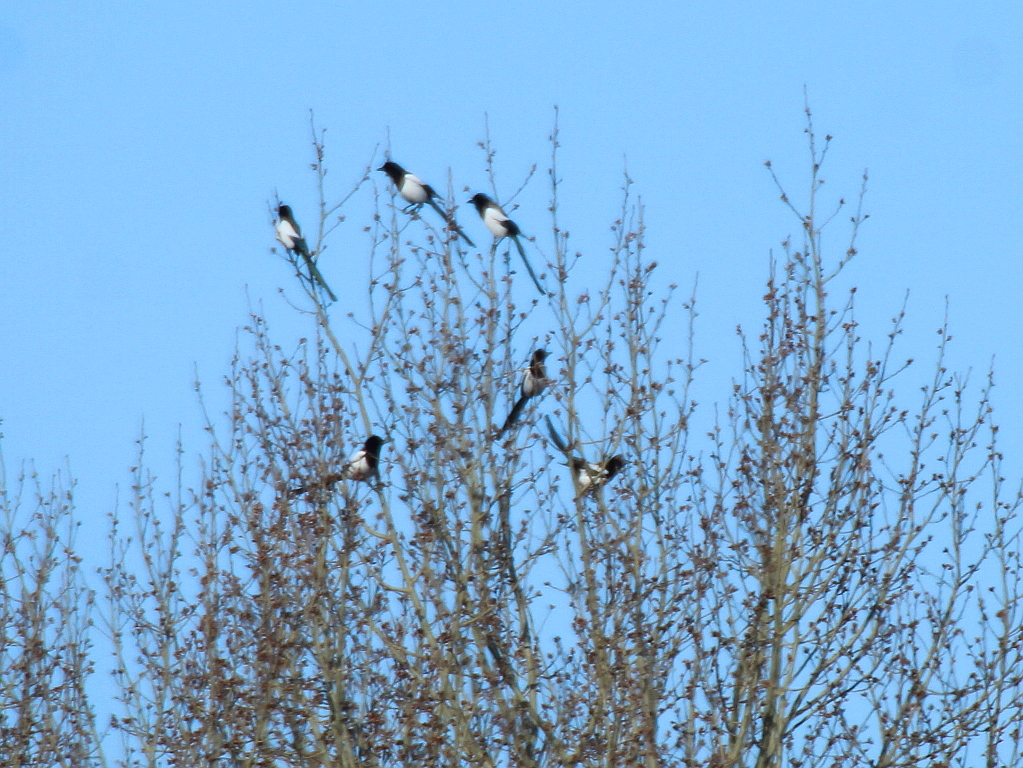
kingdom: Animalia
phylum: Chordata
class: Aves
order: Passeriformes
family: Corvidae
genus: Pica
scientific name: Pica pica
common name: Eurasian magpie
